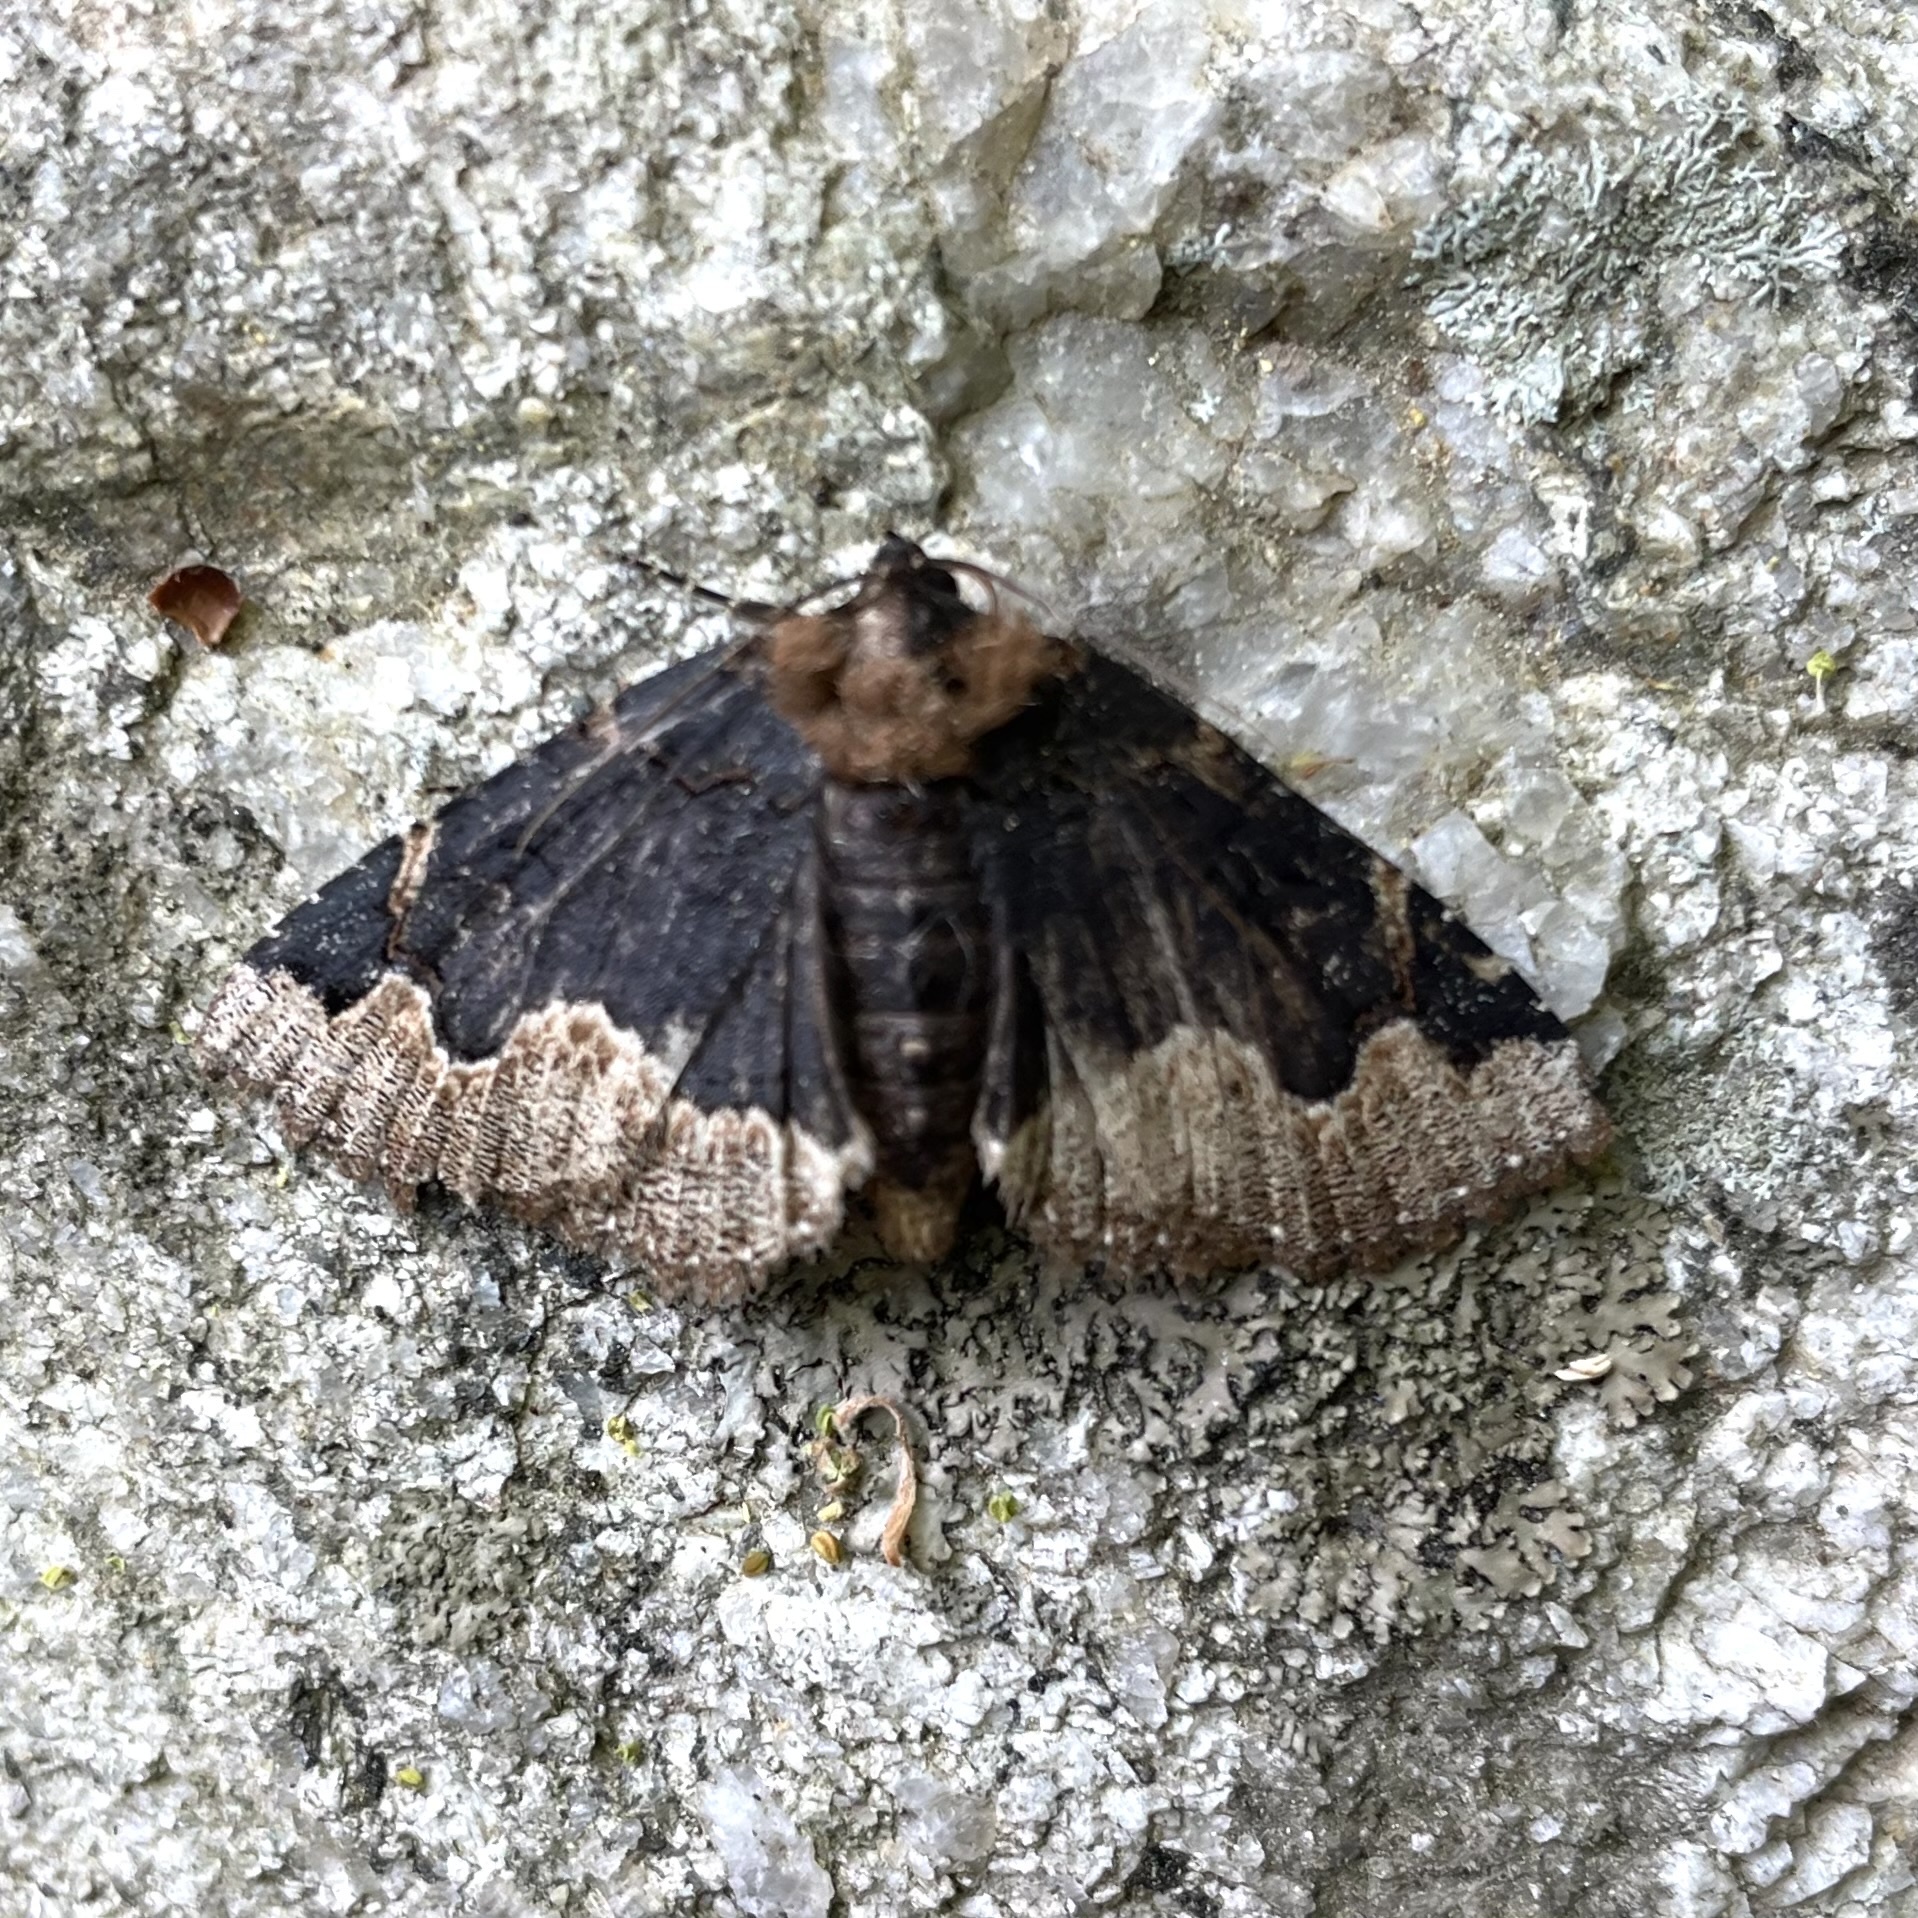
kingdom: Animalia
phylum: Arthropoda
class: Insecta
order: Lepidoptera
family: Erebidae
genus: Zale
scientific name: Zale horrida
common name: Horrid zale moth
